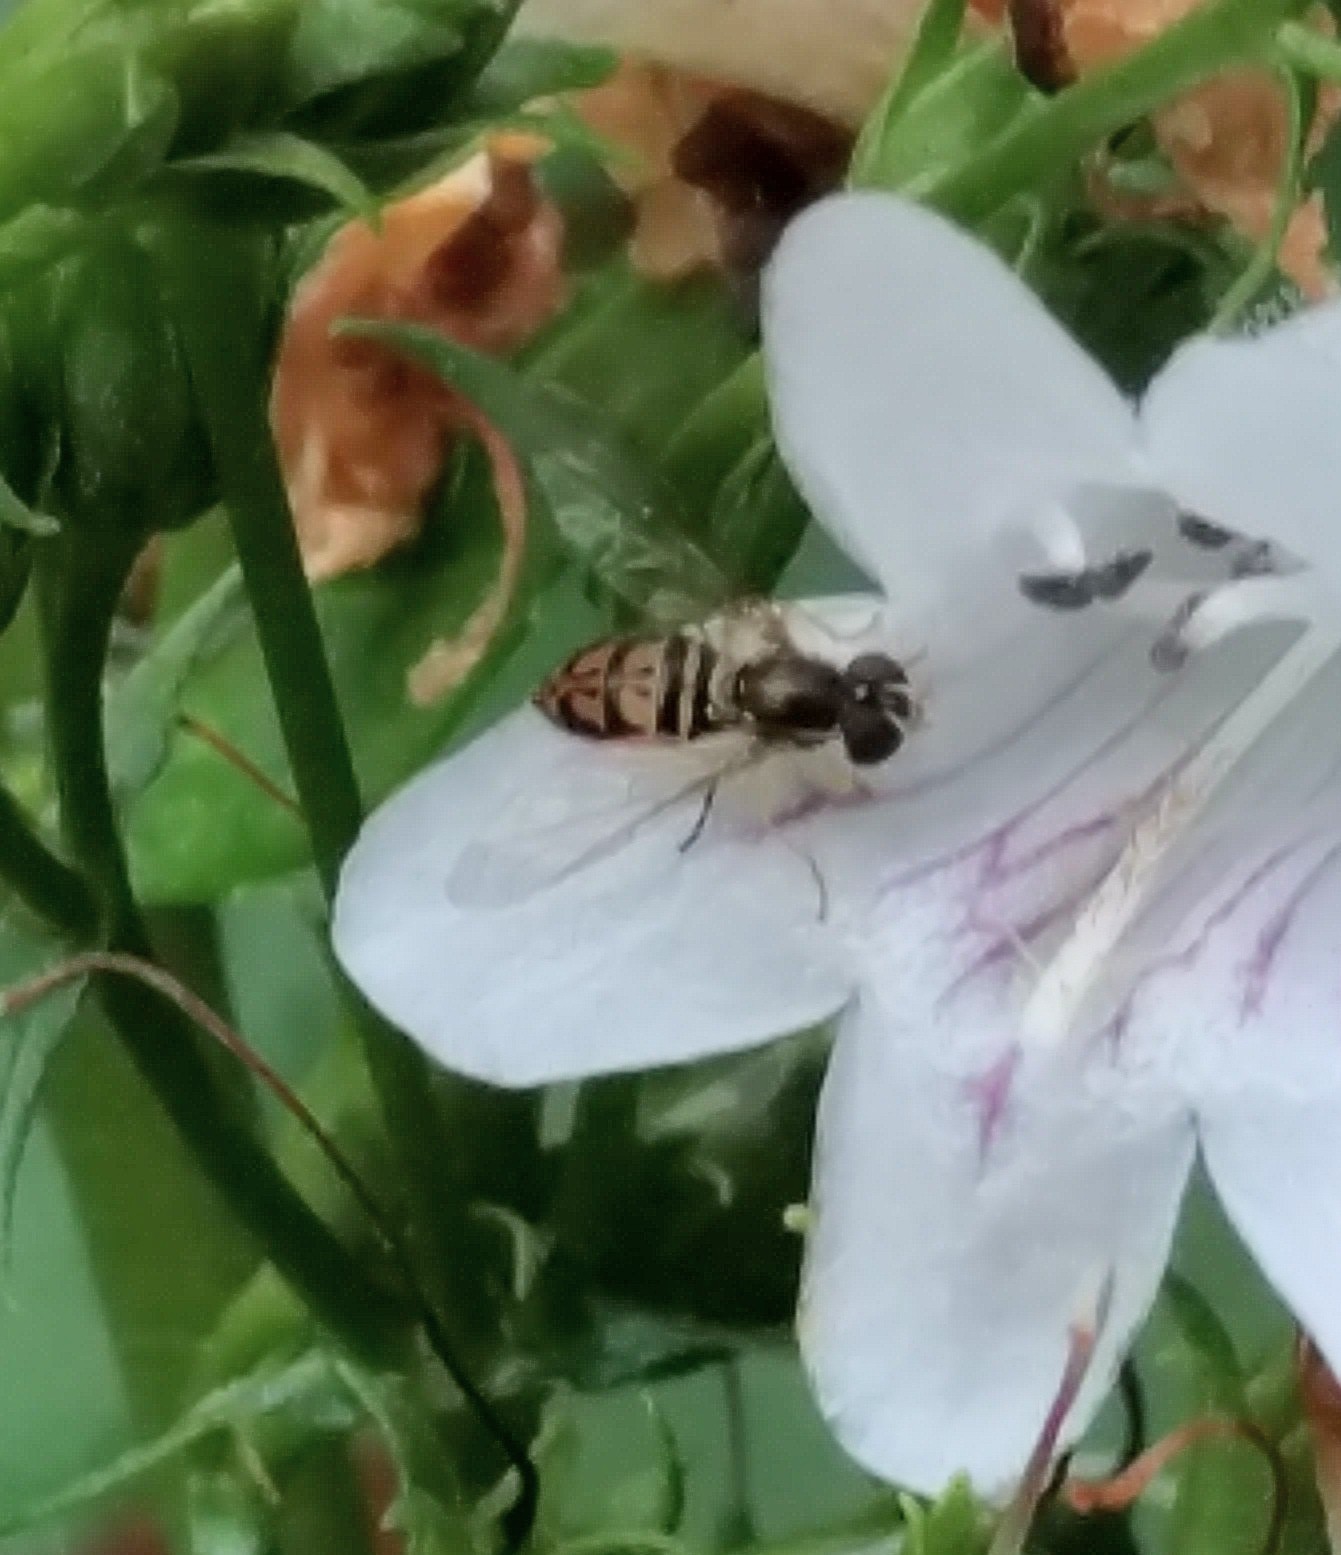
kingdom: Animalia
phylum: Arthropoda
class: Insecta
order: Diptera
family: Syrphidae
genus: Toxomerus
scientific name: Toxomerus marginatus
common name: Syrphid fly
